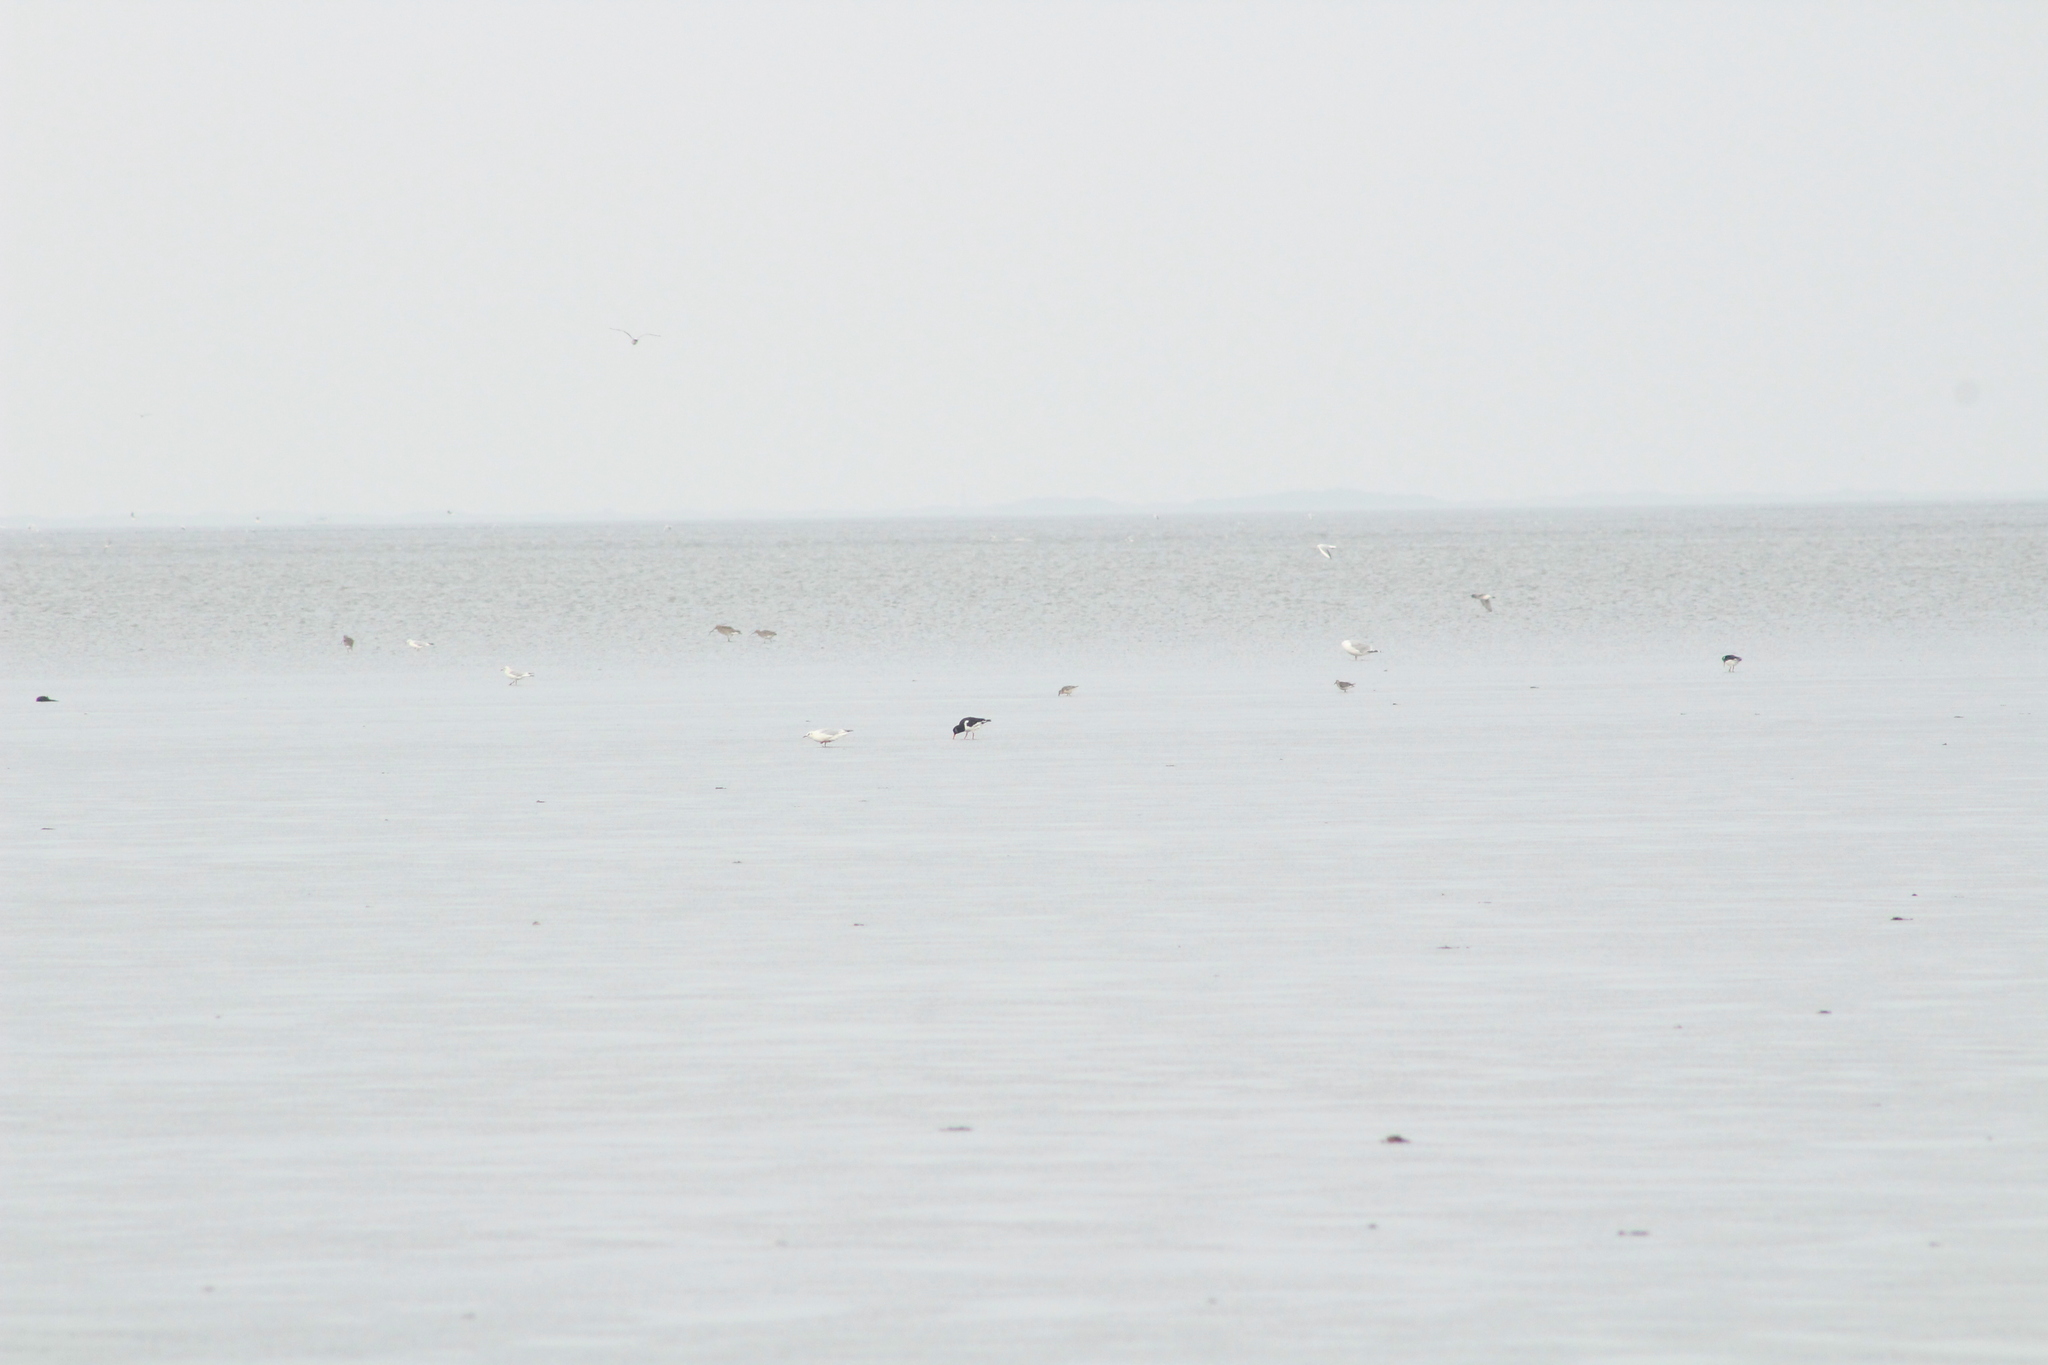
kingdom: Animalia
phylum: Chordata
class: Aves
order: Charadriiformes
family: Haematopodidae
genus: Haematopus
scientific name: Haematopus ostralegus
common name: Eurasian oystercatcher
